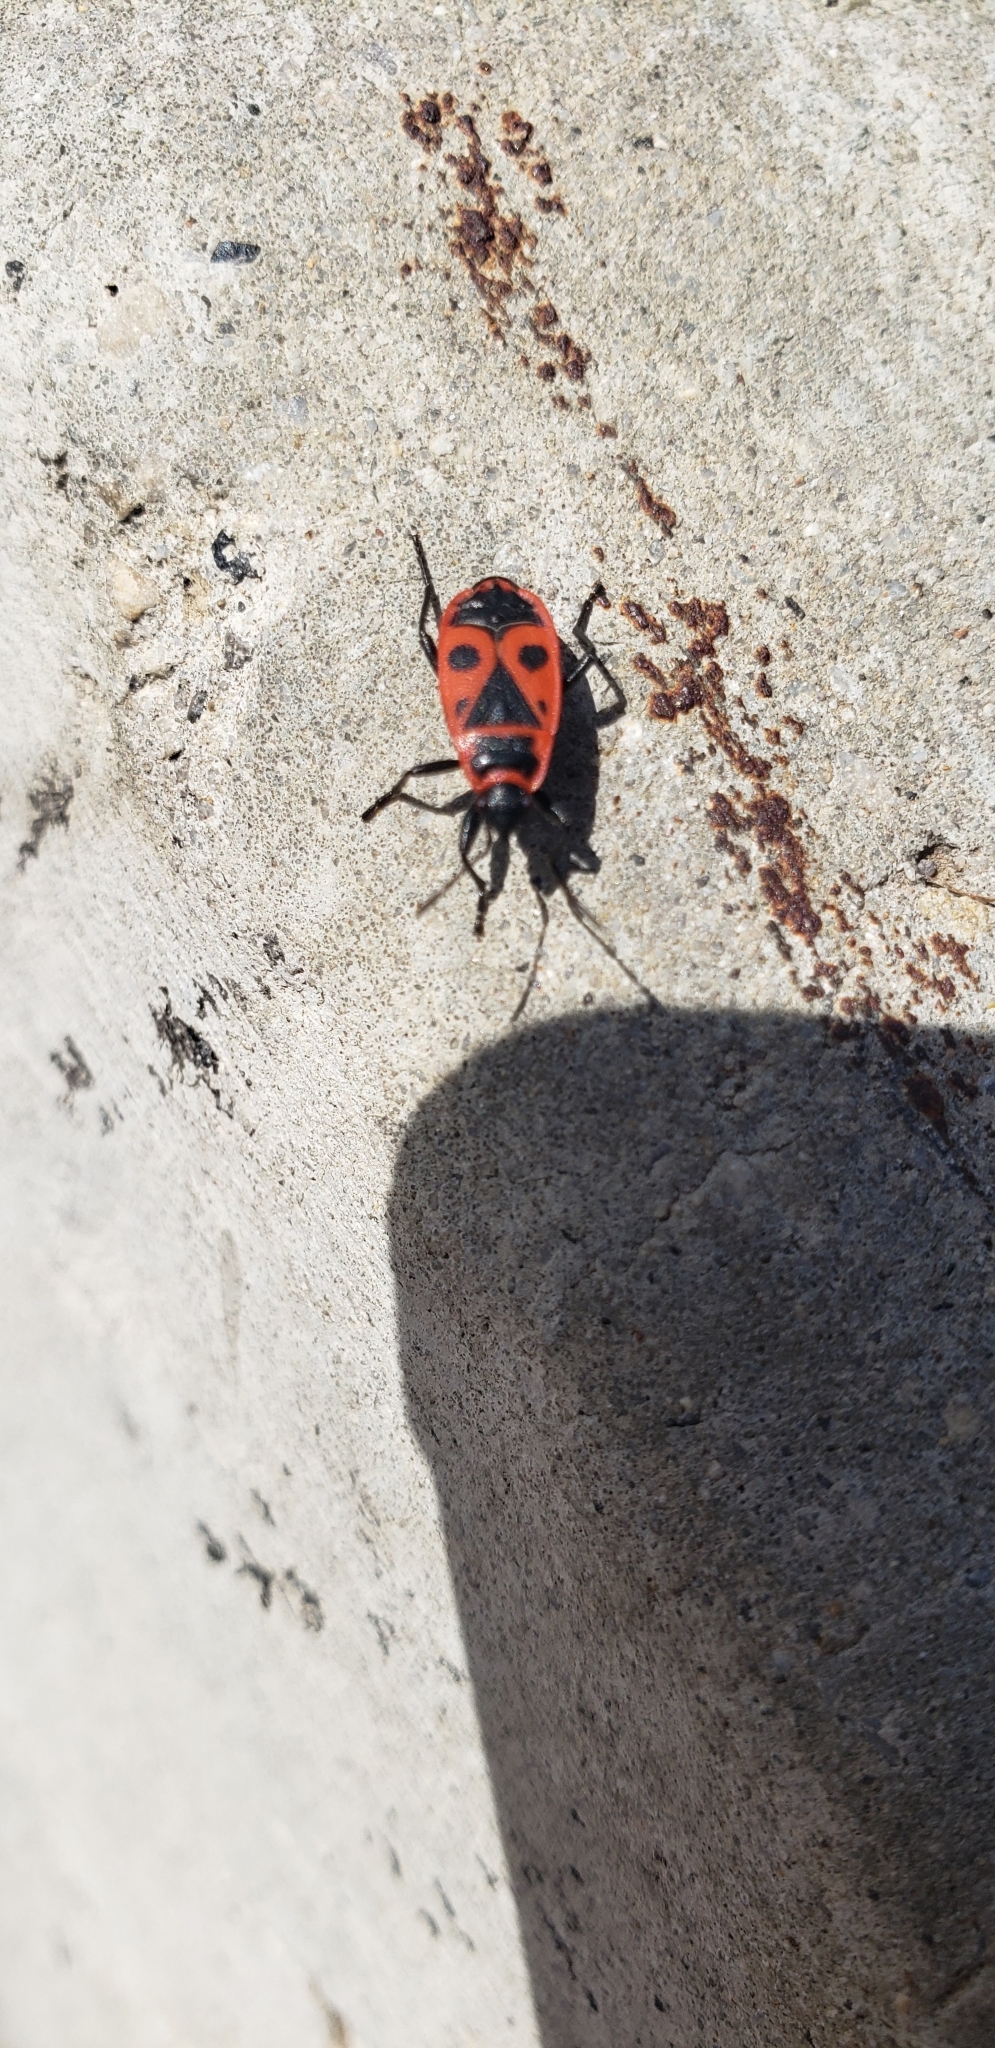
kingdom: Animalia
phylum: Arthropoda
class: Insecta
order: Hemiptera
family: Pyrrhocoridae
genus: Pyrrhocoris
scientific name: Pyrrhocoris apterus
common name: Firebug
